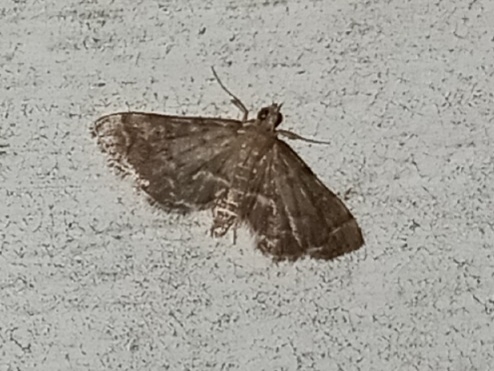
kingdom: Animalia
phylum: Arthropoda
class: Insecta
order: Lepidoptera
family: Crambidae
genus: Anageshna
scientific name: Anageshna primordialis
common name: Yellow-spotted webworm moth
